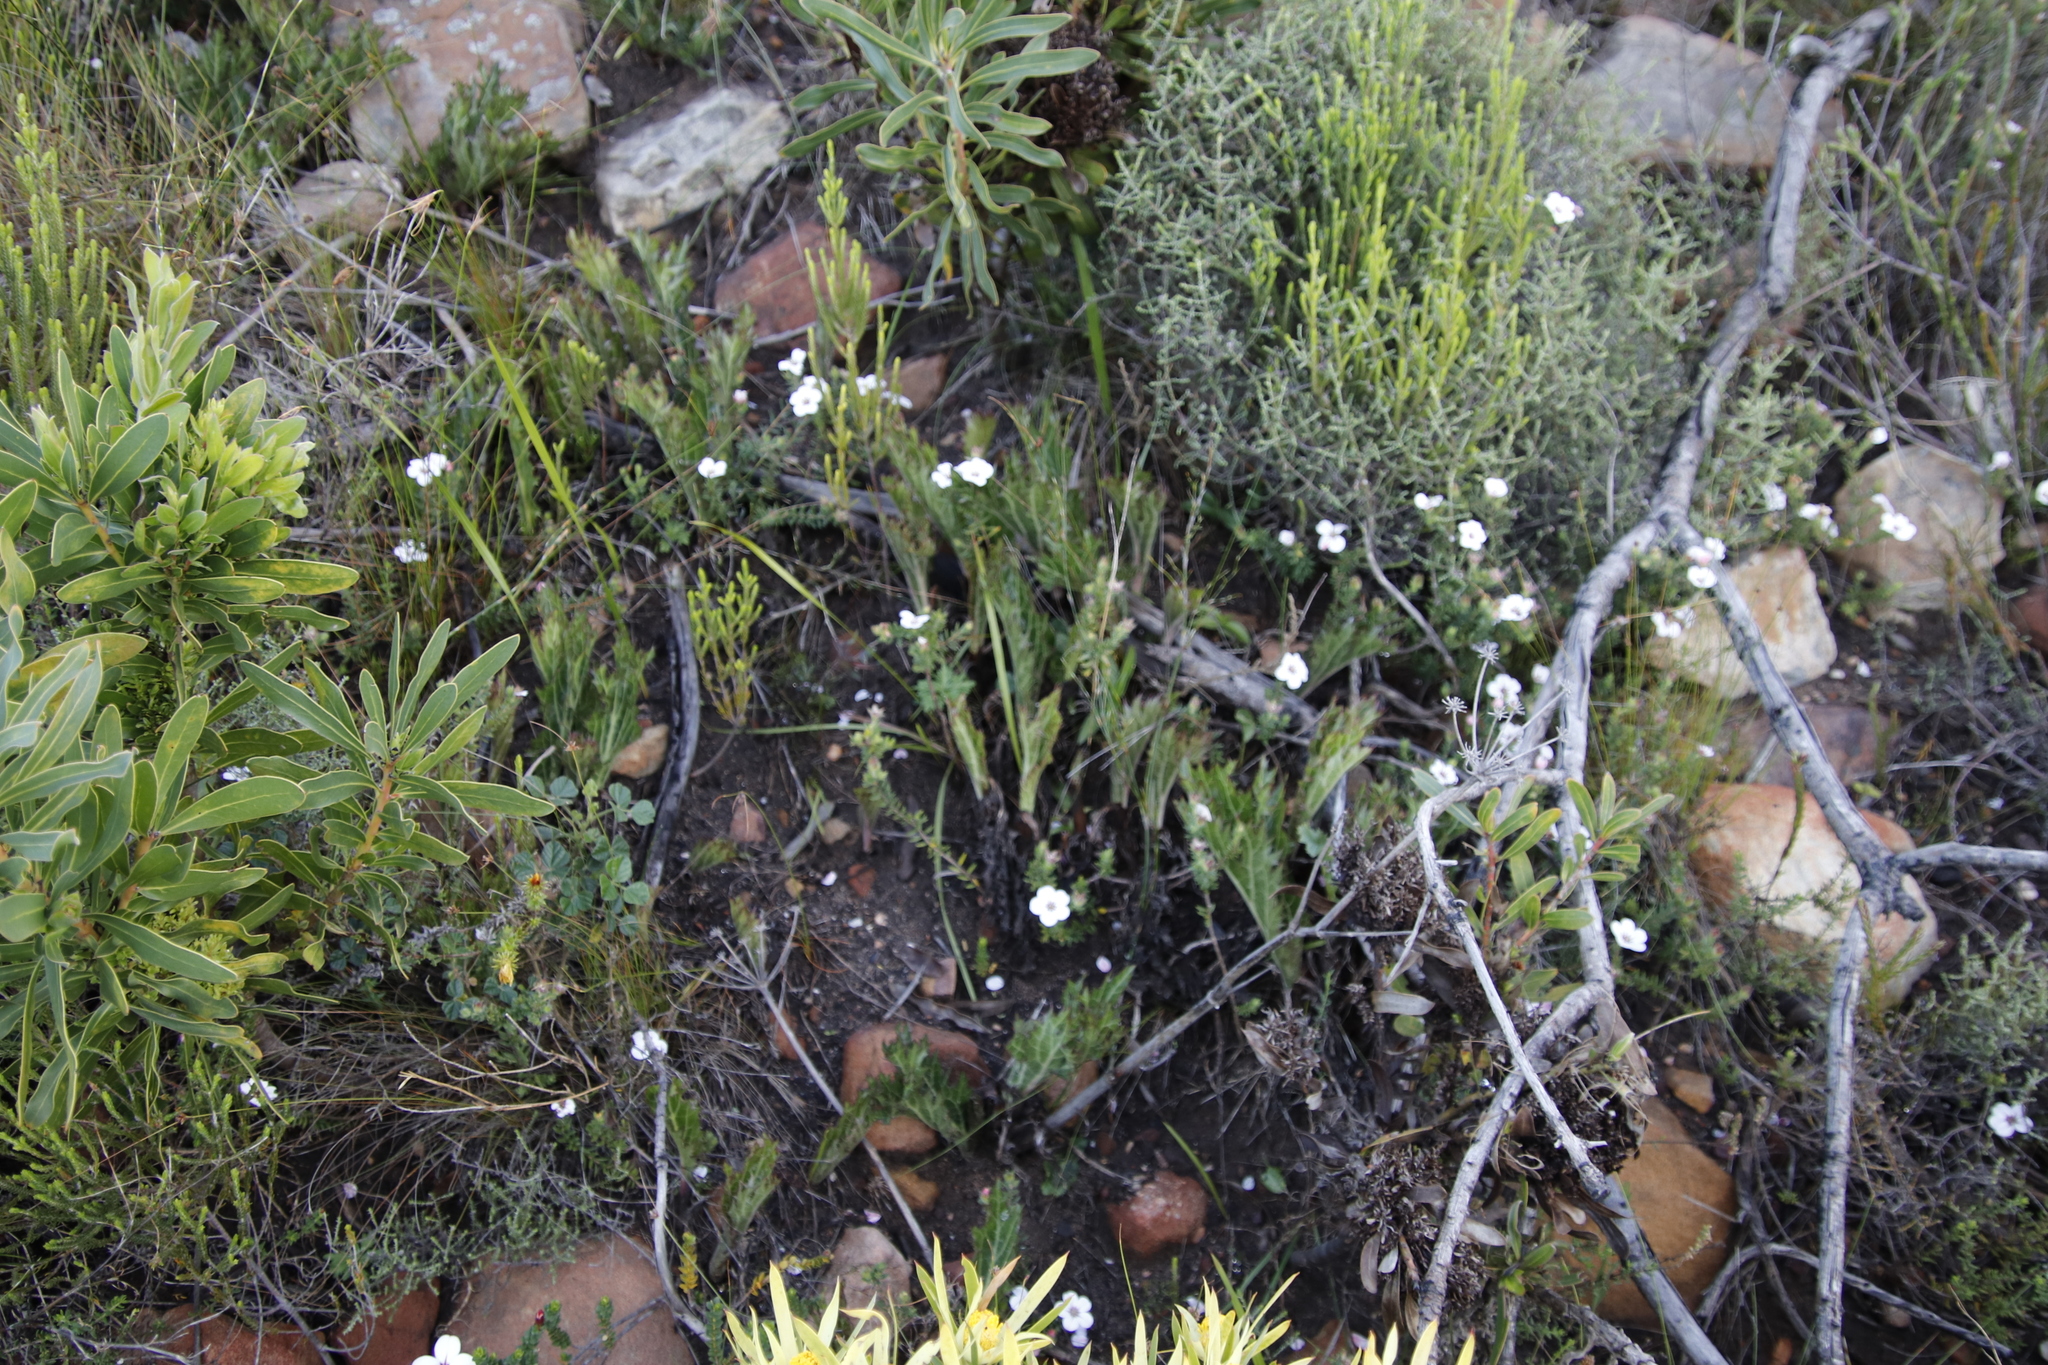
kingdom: Plantae
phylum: Tracheophyta
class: Magnoliopsida
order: Apiales
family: Apiaceae
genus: Lichtensteinia
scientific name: Lichtensteinia lacera
